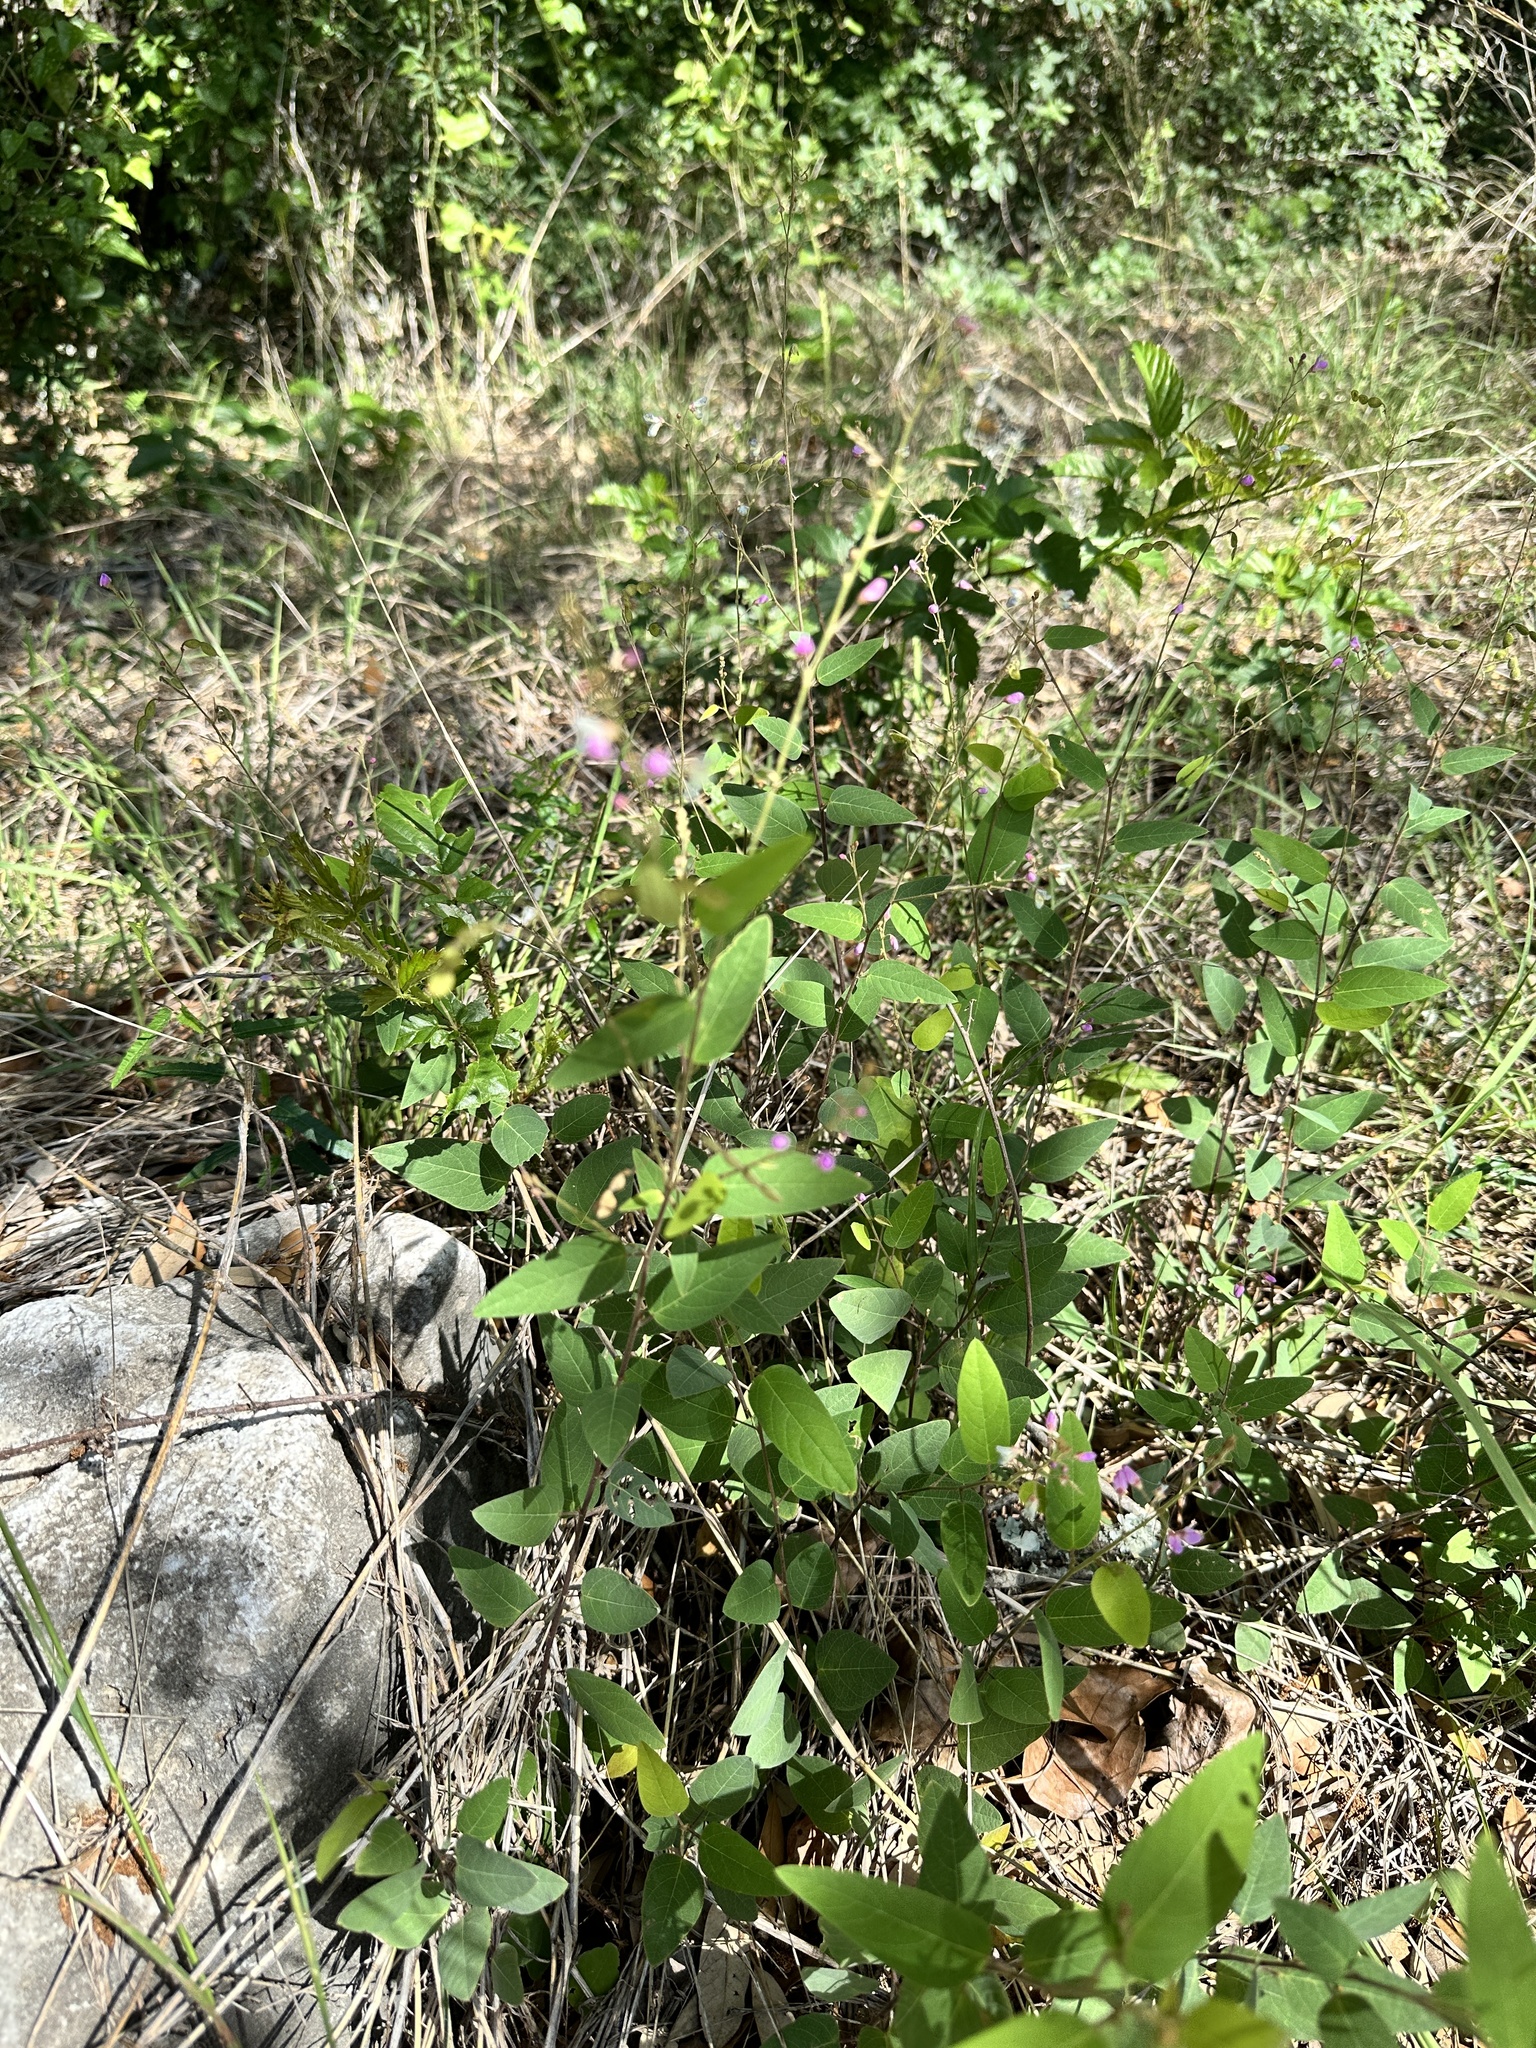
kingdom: Plantae
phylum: Tracheophyta
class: Magnoliopsida
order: Fabales
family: Fabaceae
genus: Desmodium
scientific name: Desmodium psilophyllum
